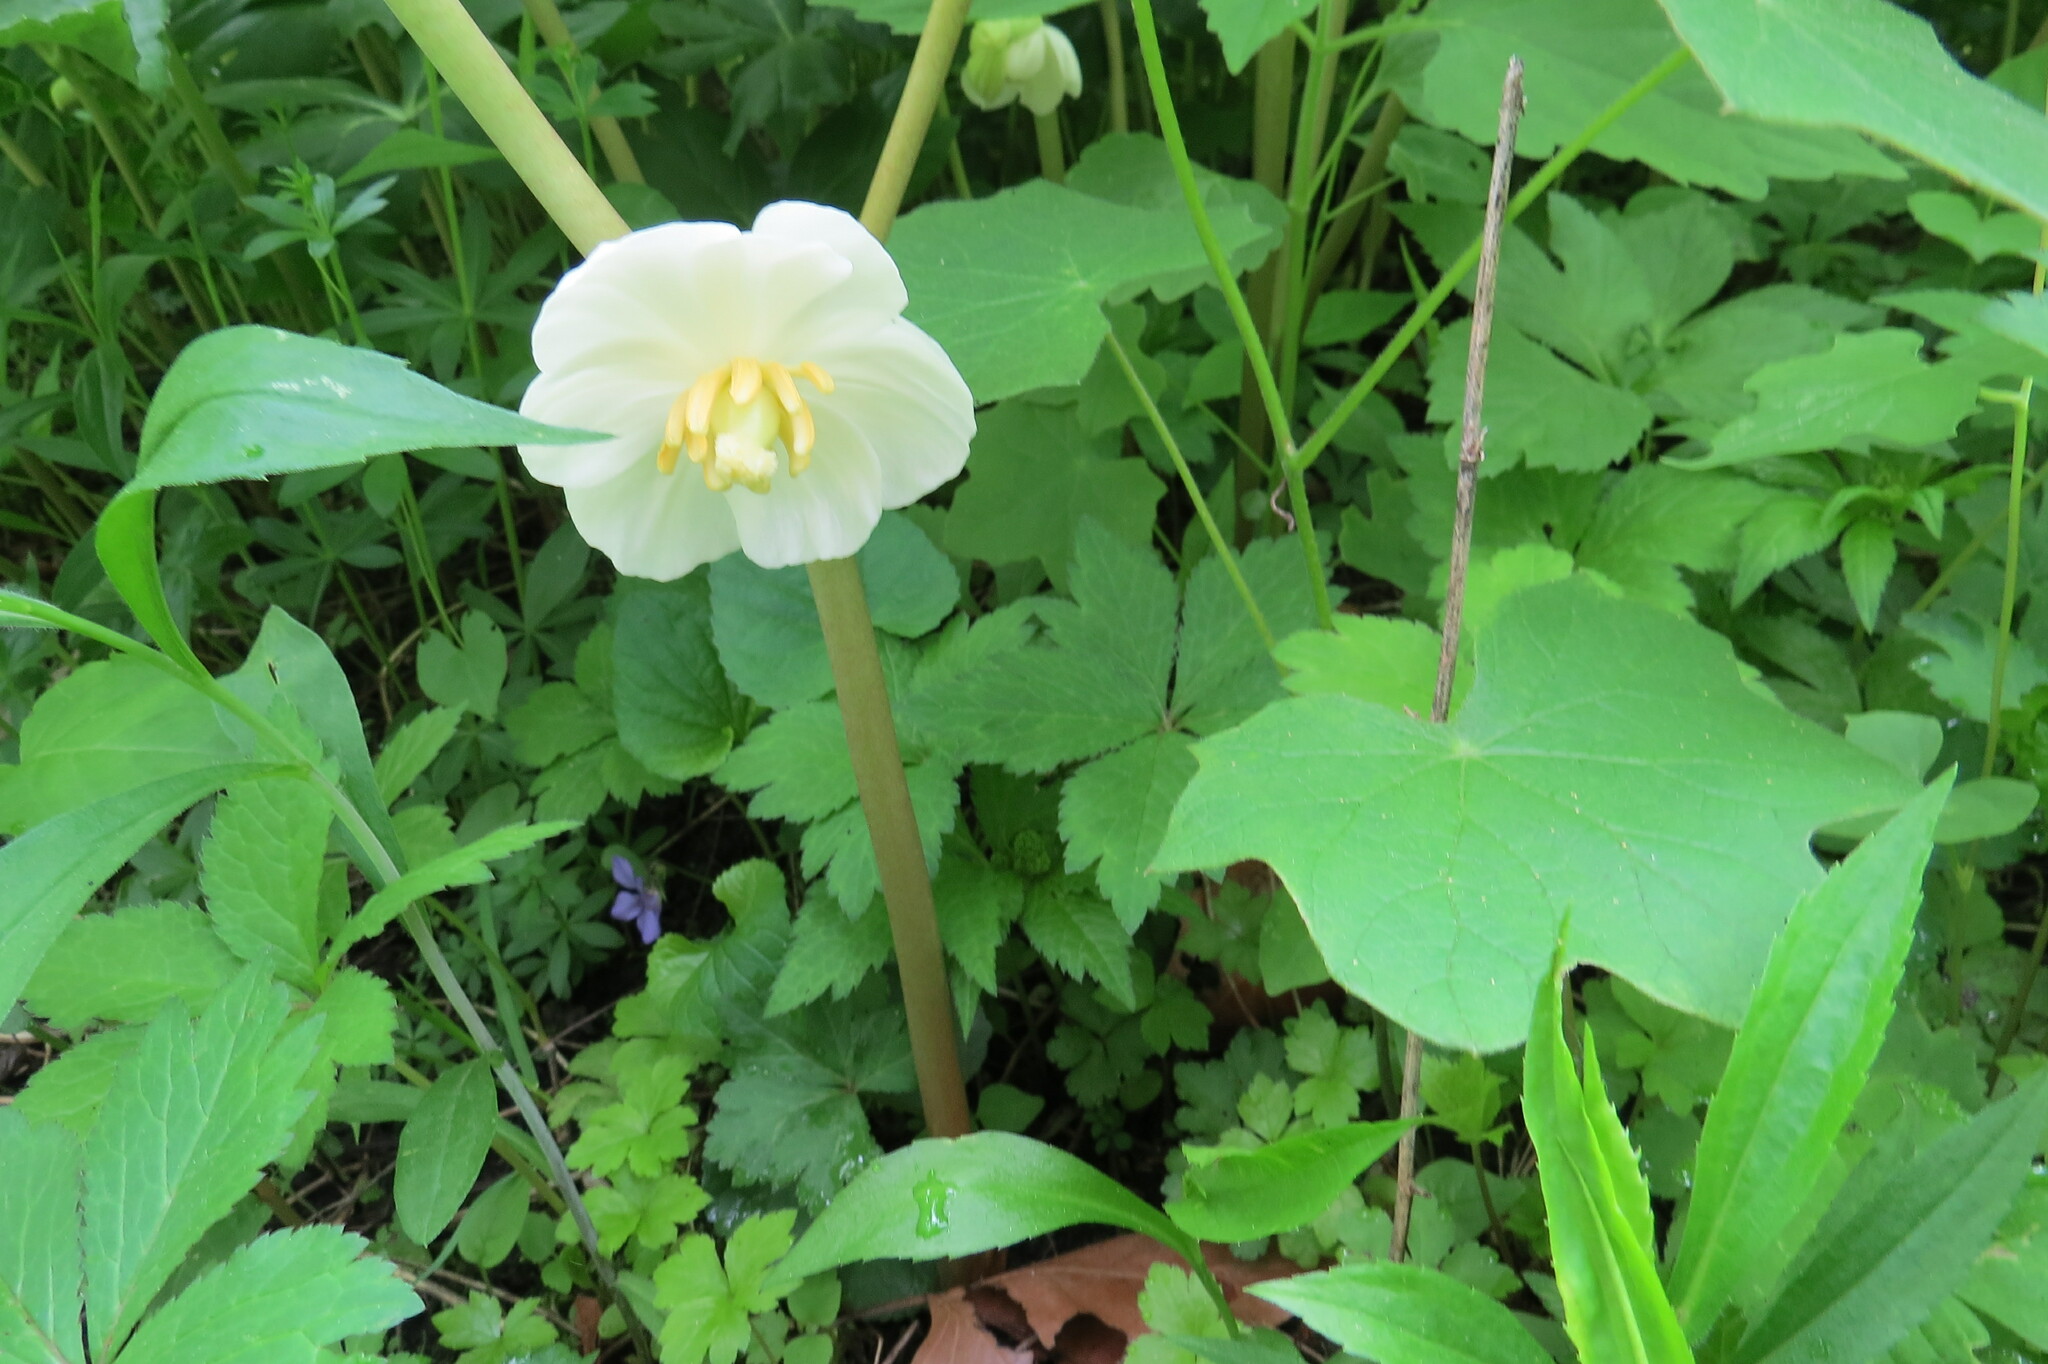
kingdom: Plantae
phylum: Tracheophyta
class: Magnoliopsida
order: Ranunculales
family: Berberidaceae
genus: Podophyllum
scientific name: Podophyllum peltatum
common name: Wild mandrake
